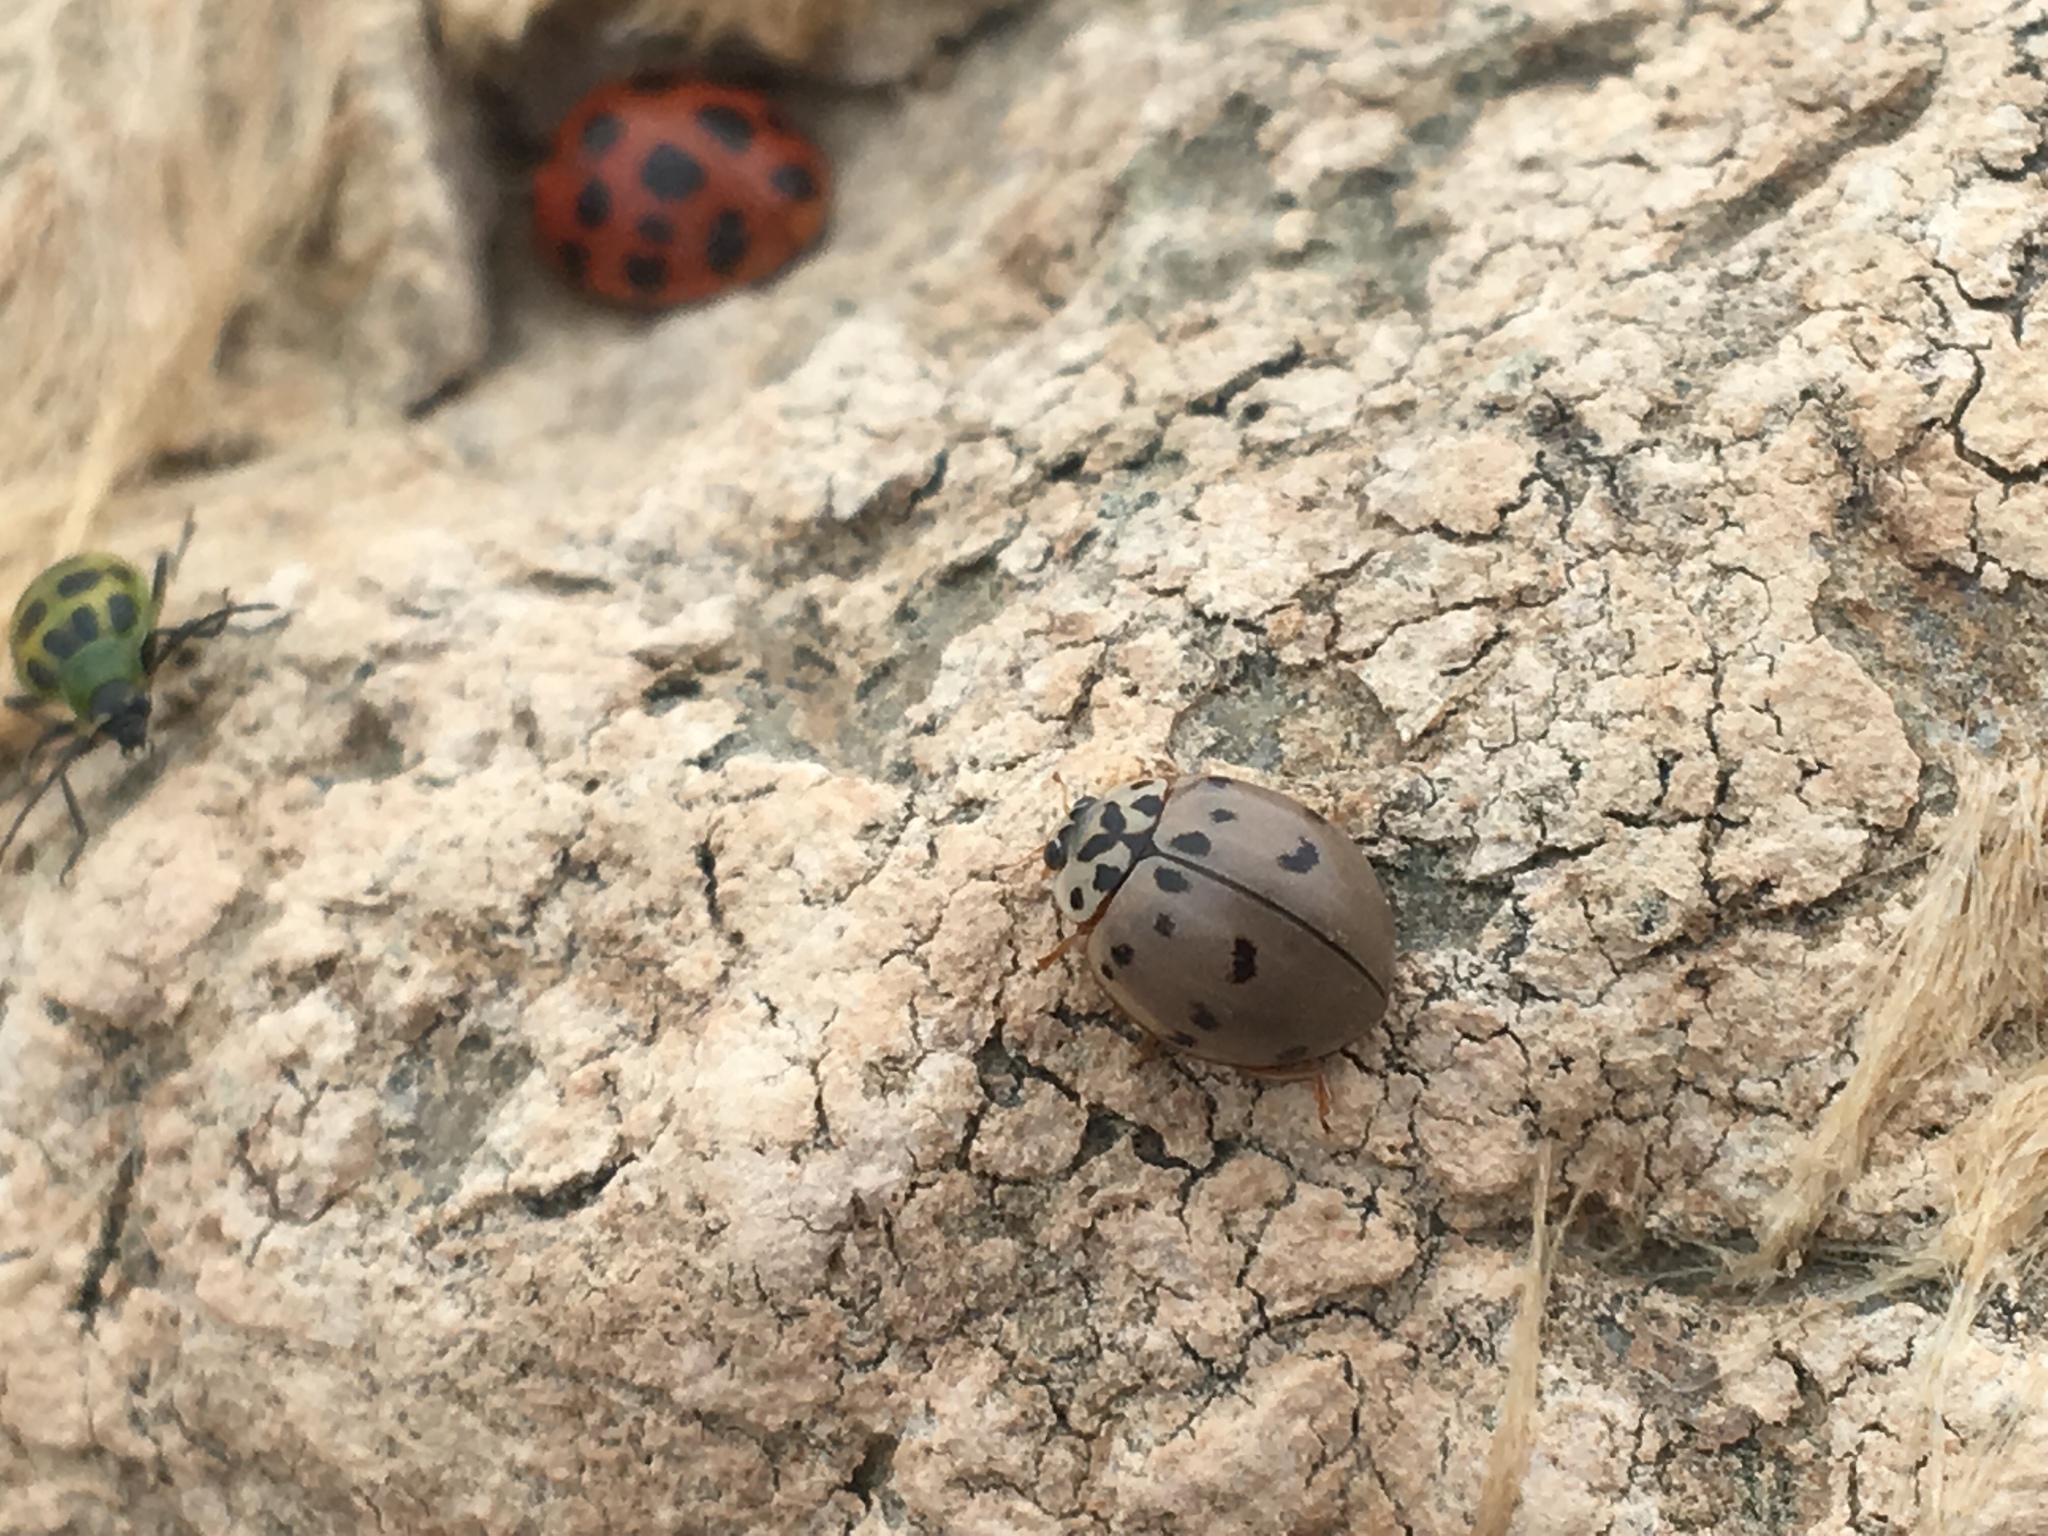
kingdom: Animalia
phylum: Arthropoda
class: Insecta
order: Coleoptera
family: Coccinellidae
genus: Olla
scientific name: Olla v-nigrum
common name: Ashy gray lady beetle
